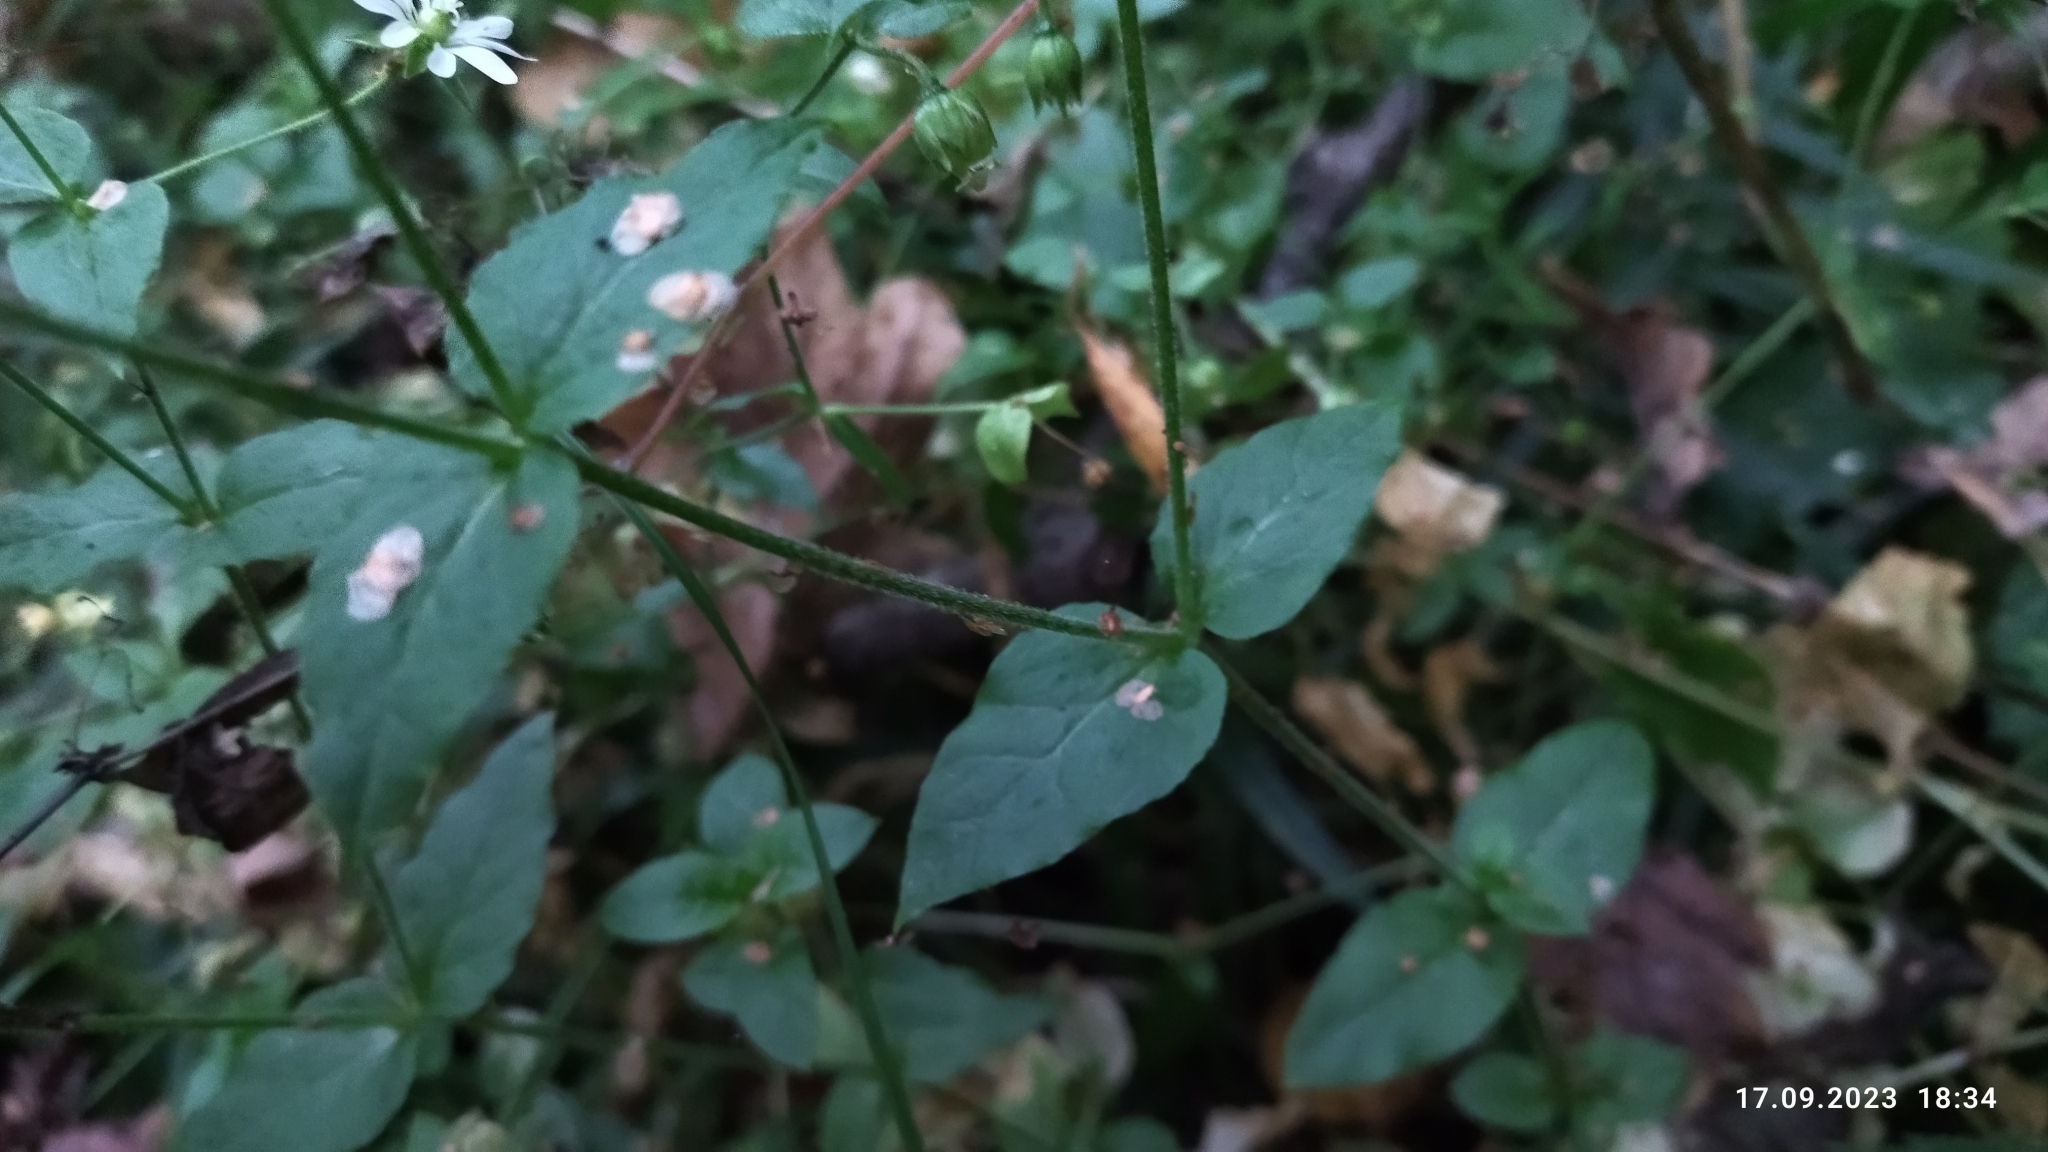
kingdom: Plantae
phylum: Tracheophyta
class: Magnoliopsida
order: Caryophyllales
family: Caryophyllaceae
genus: Stellaria
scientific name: Stellaria aquatica
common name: Water chickweed
